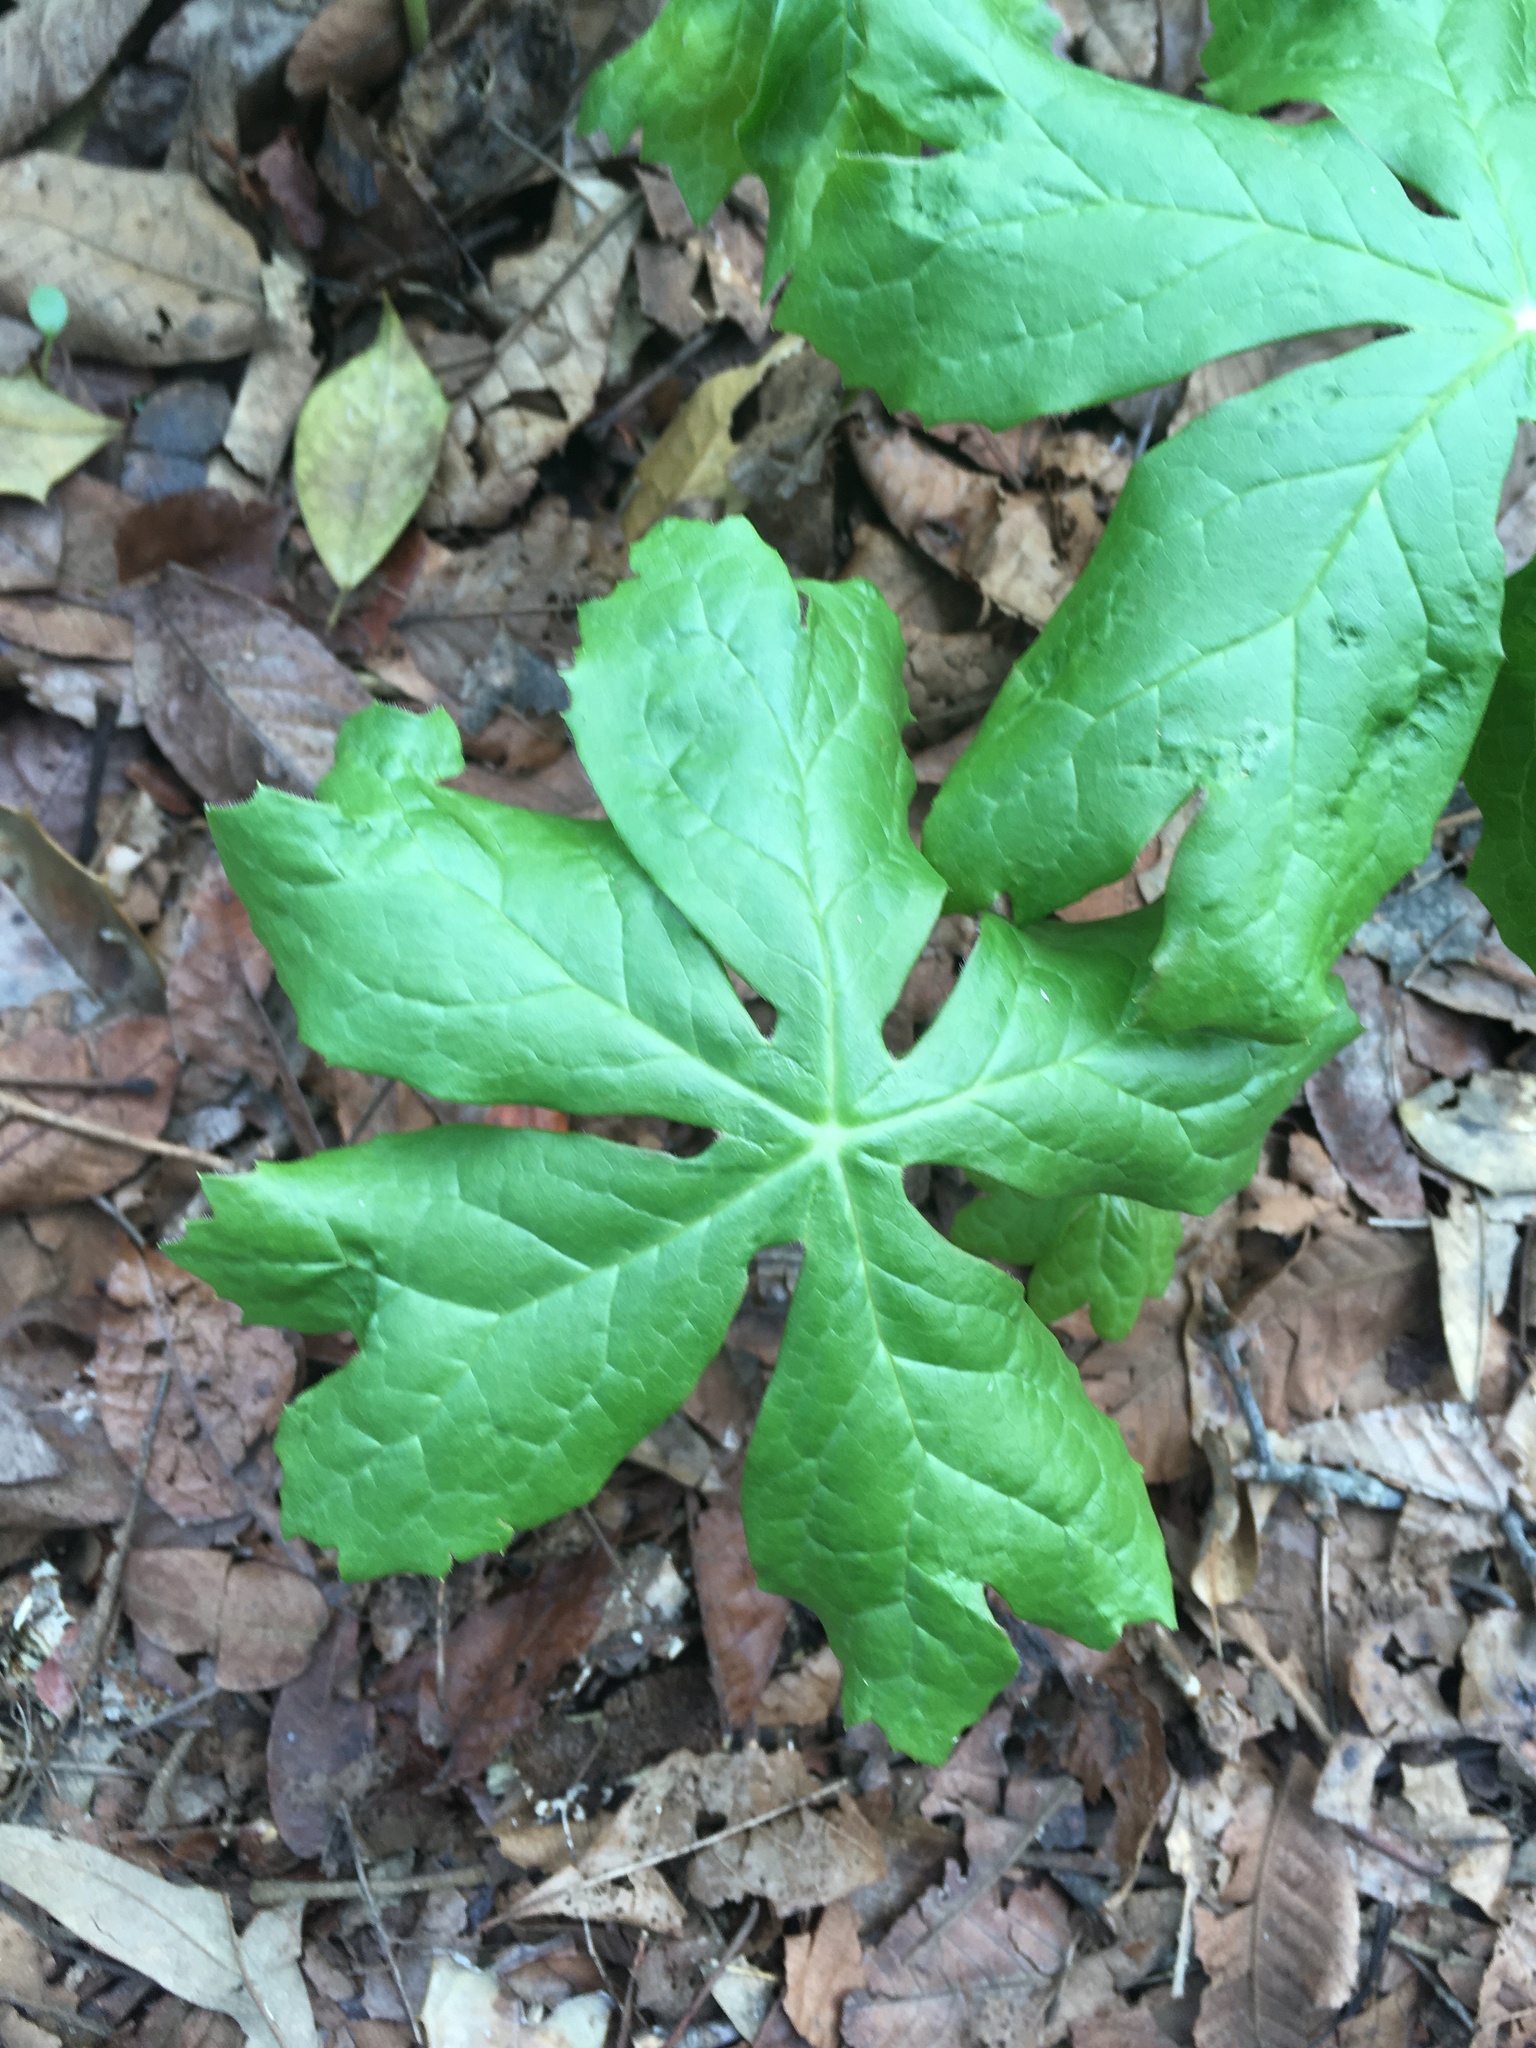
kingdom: Plantae
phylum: Tracheophyta
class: Magnoliopsida
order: Ranunculales
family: Berberidaceae
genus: Podophyllum
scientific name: Podophyllum peltatum
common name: Wild mandrake
